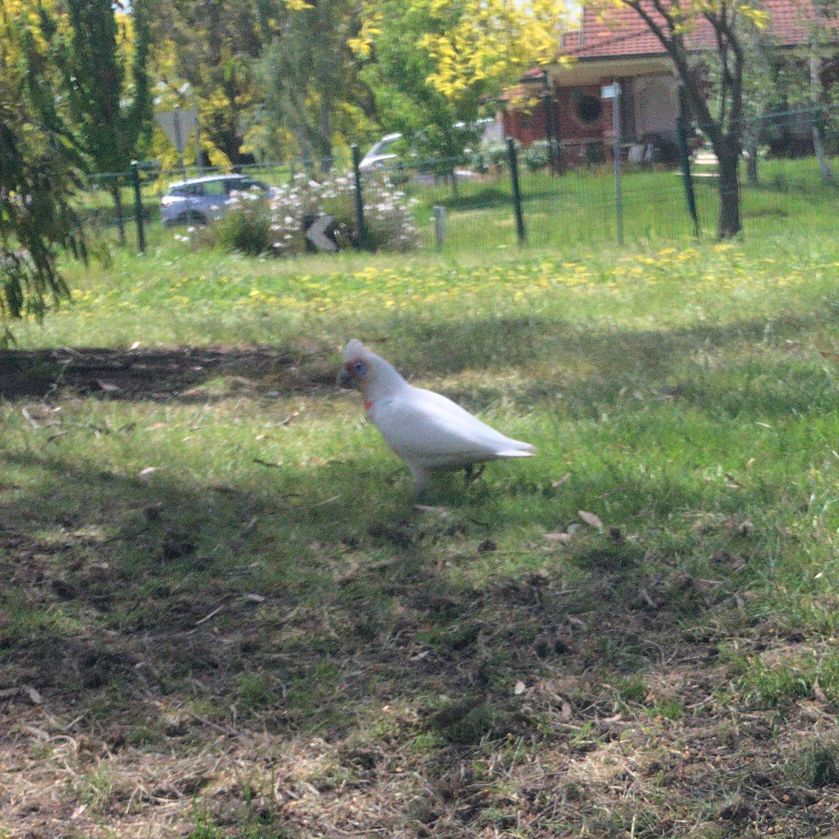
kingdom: Animalia
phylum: Chordata
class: Aves
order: Psittaciformes
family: Psittacidae
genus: Cacatua
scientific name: Cacatua tenuirostris
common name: Long-billed corella
